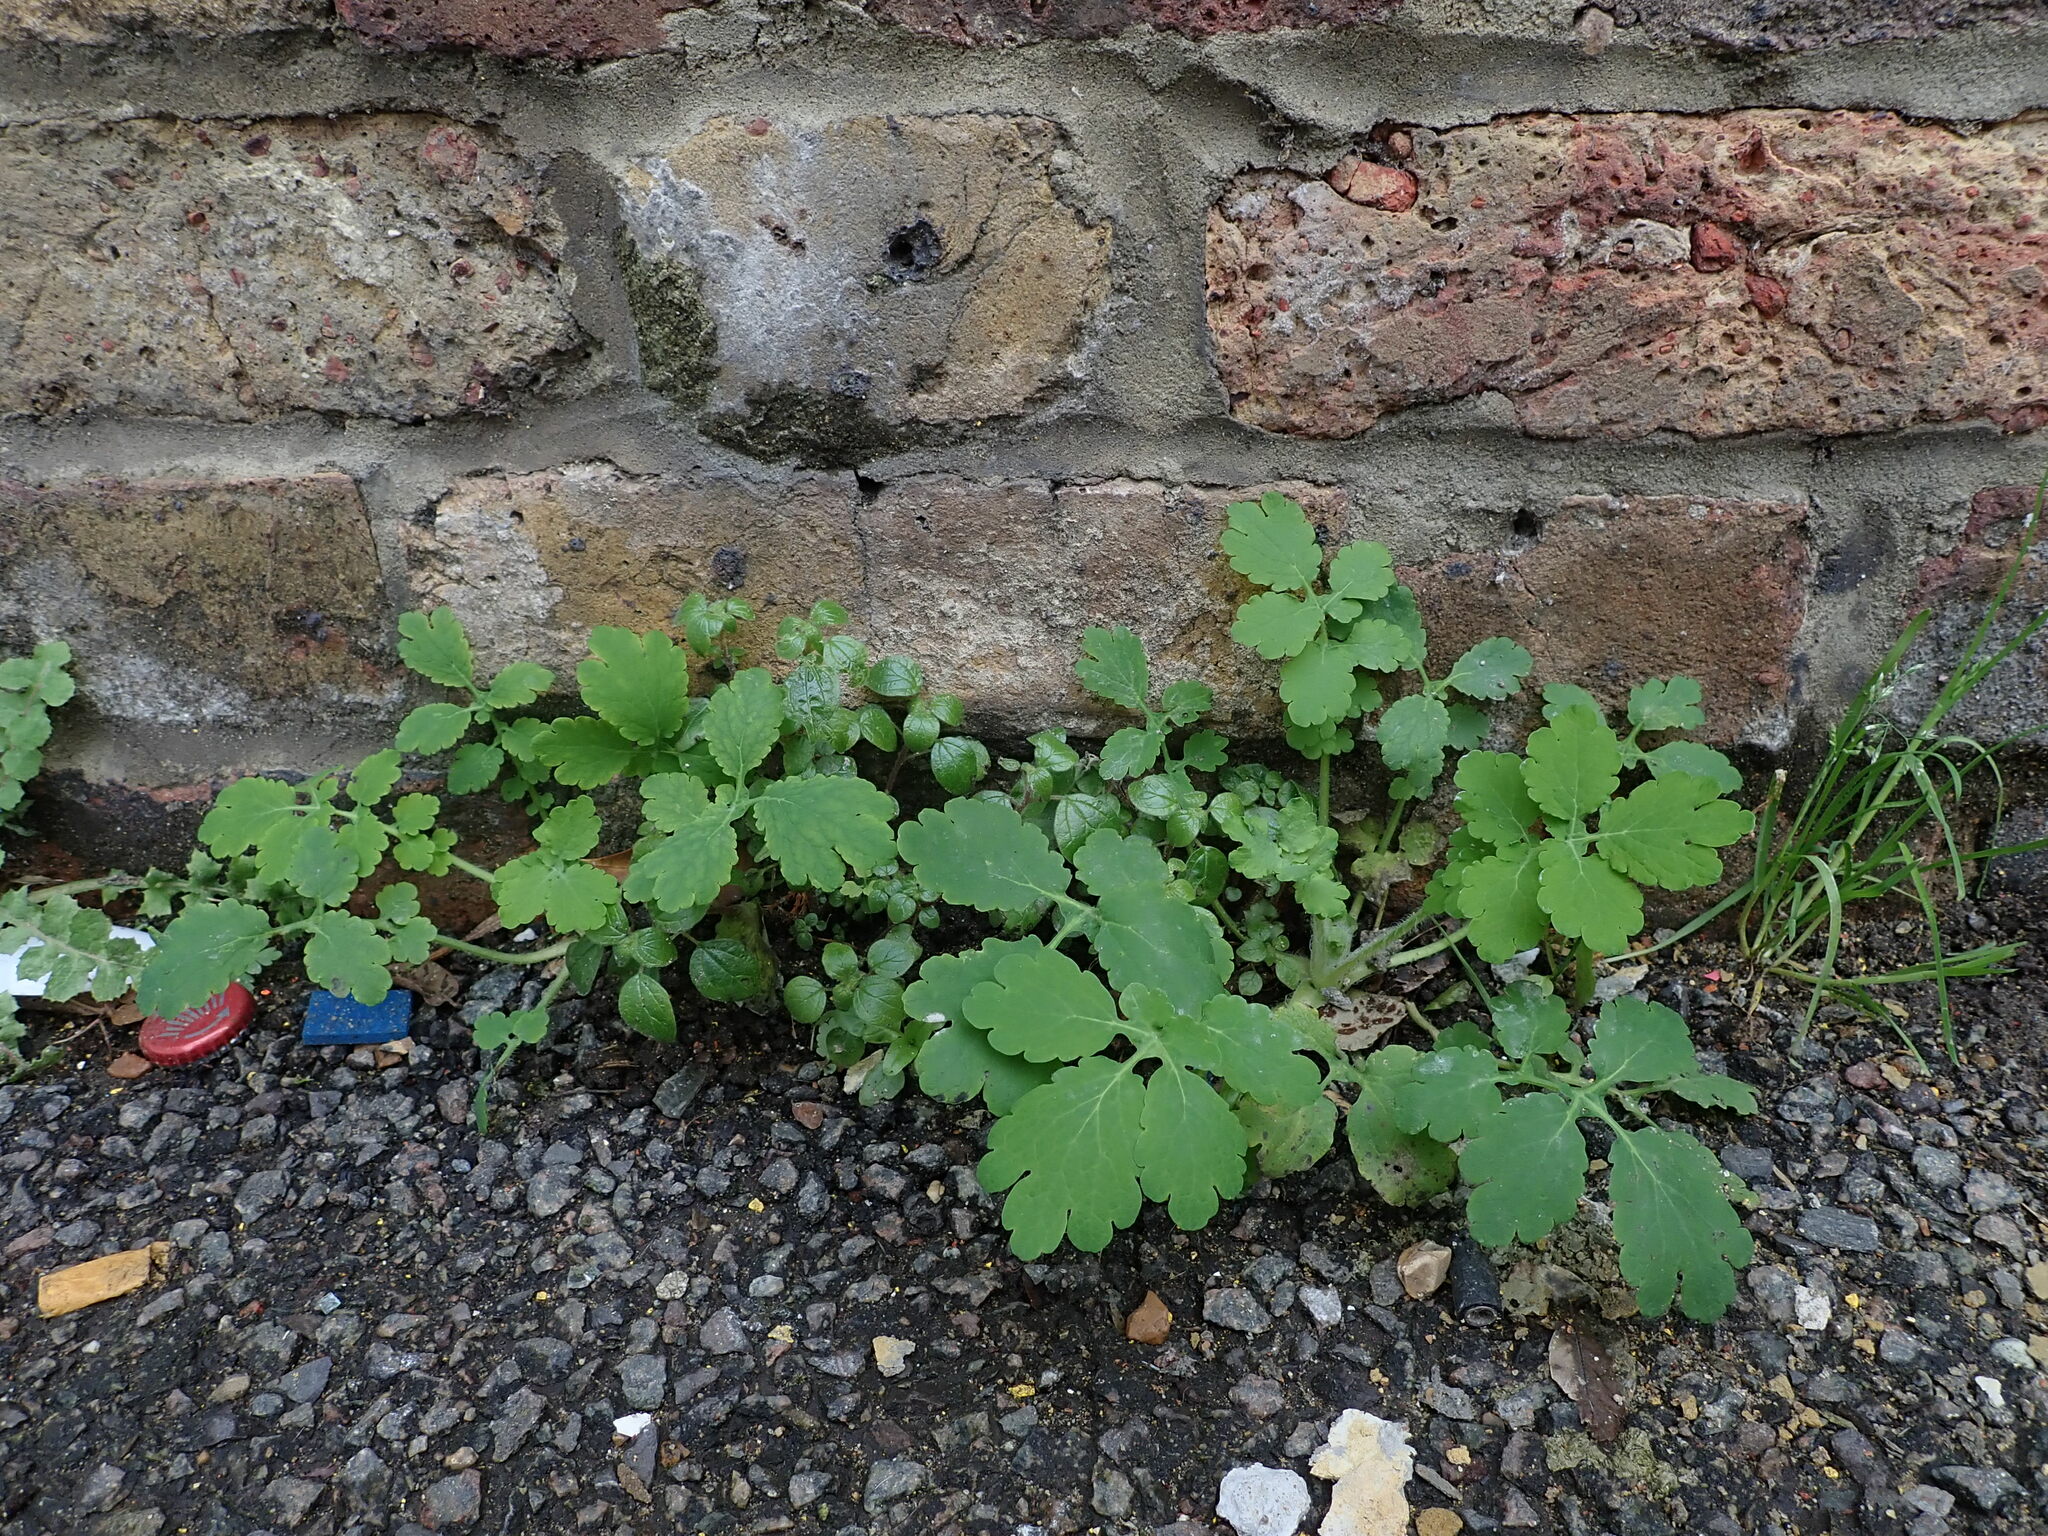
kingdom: Plantae
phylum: Tracheophyta
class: Magnoliopsida
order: Ranunculales
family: Papaveraceae
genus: Chelidonium
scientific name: Chelidonium majus
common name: Greater celandine
